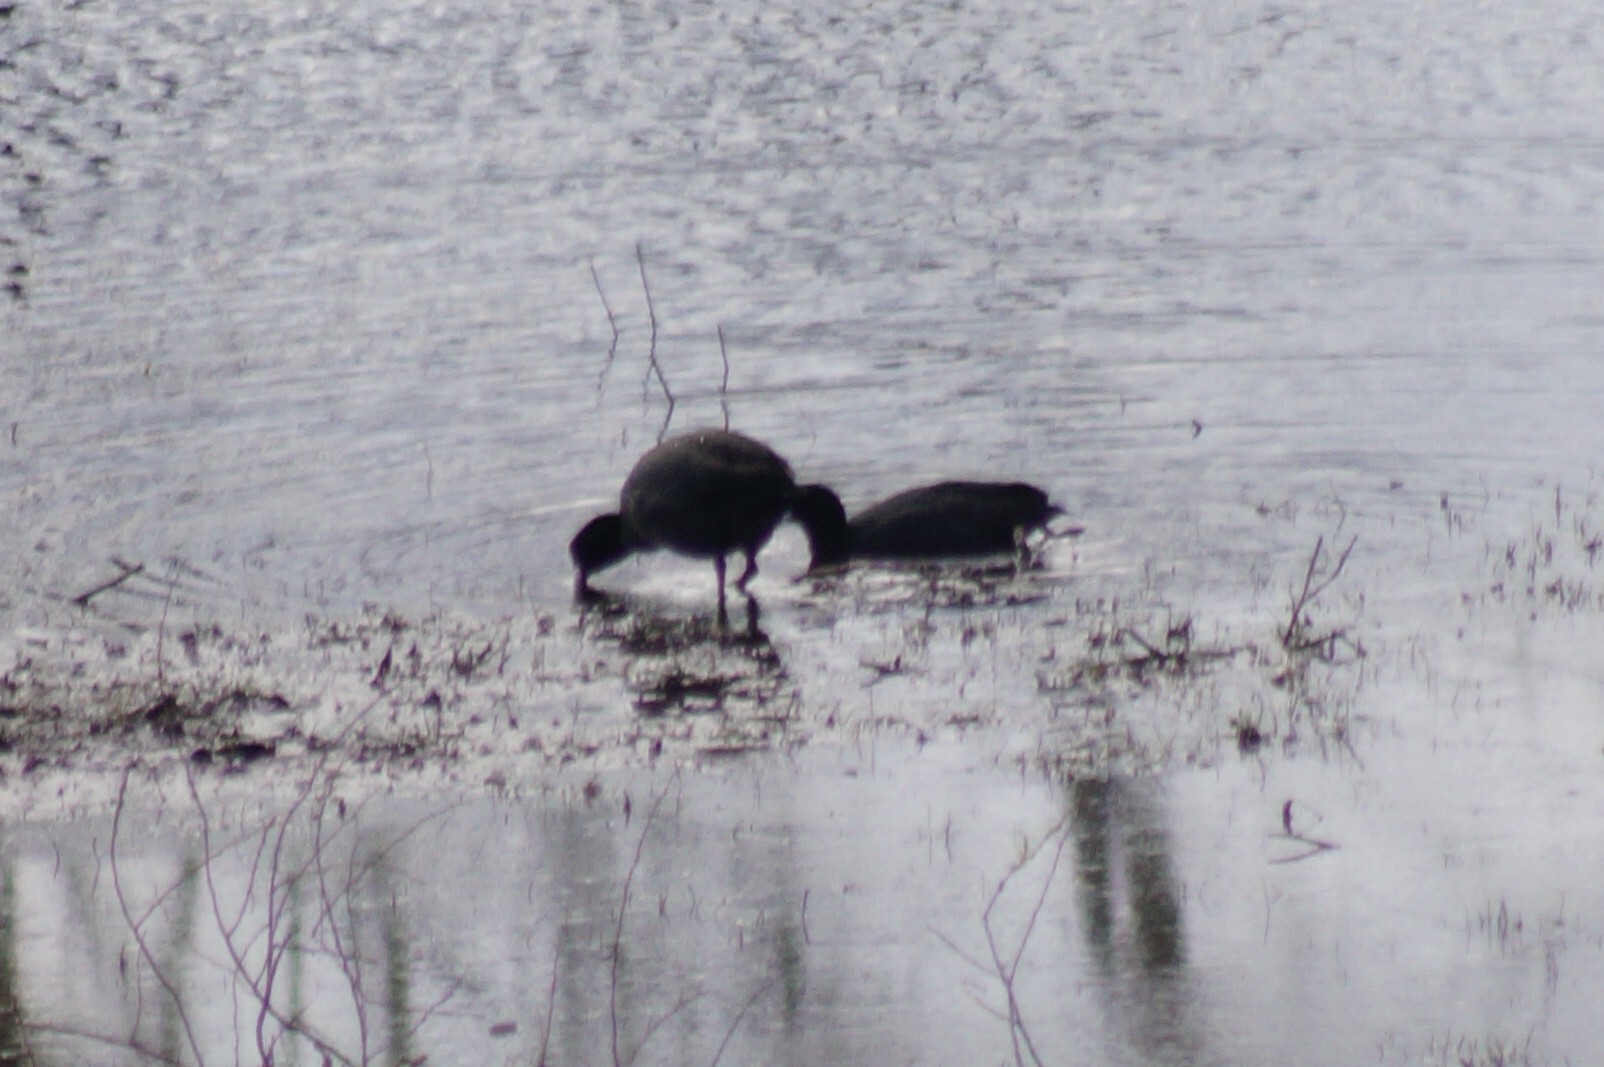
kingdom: Animalia
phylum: Chordata
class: Aves
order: Gruiformes
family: Rallidae
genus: Fulica
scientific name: Fulica atra
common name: Eurasian coot
